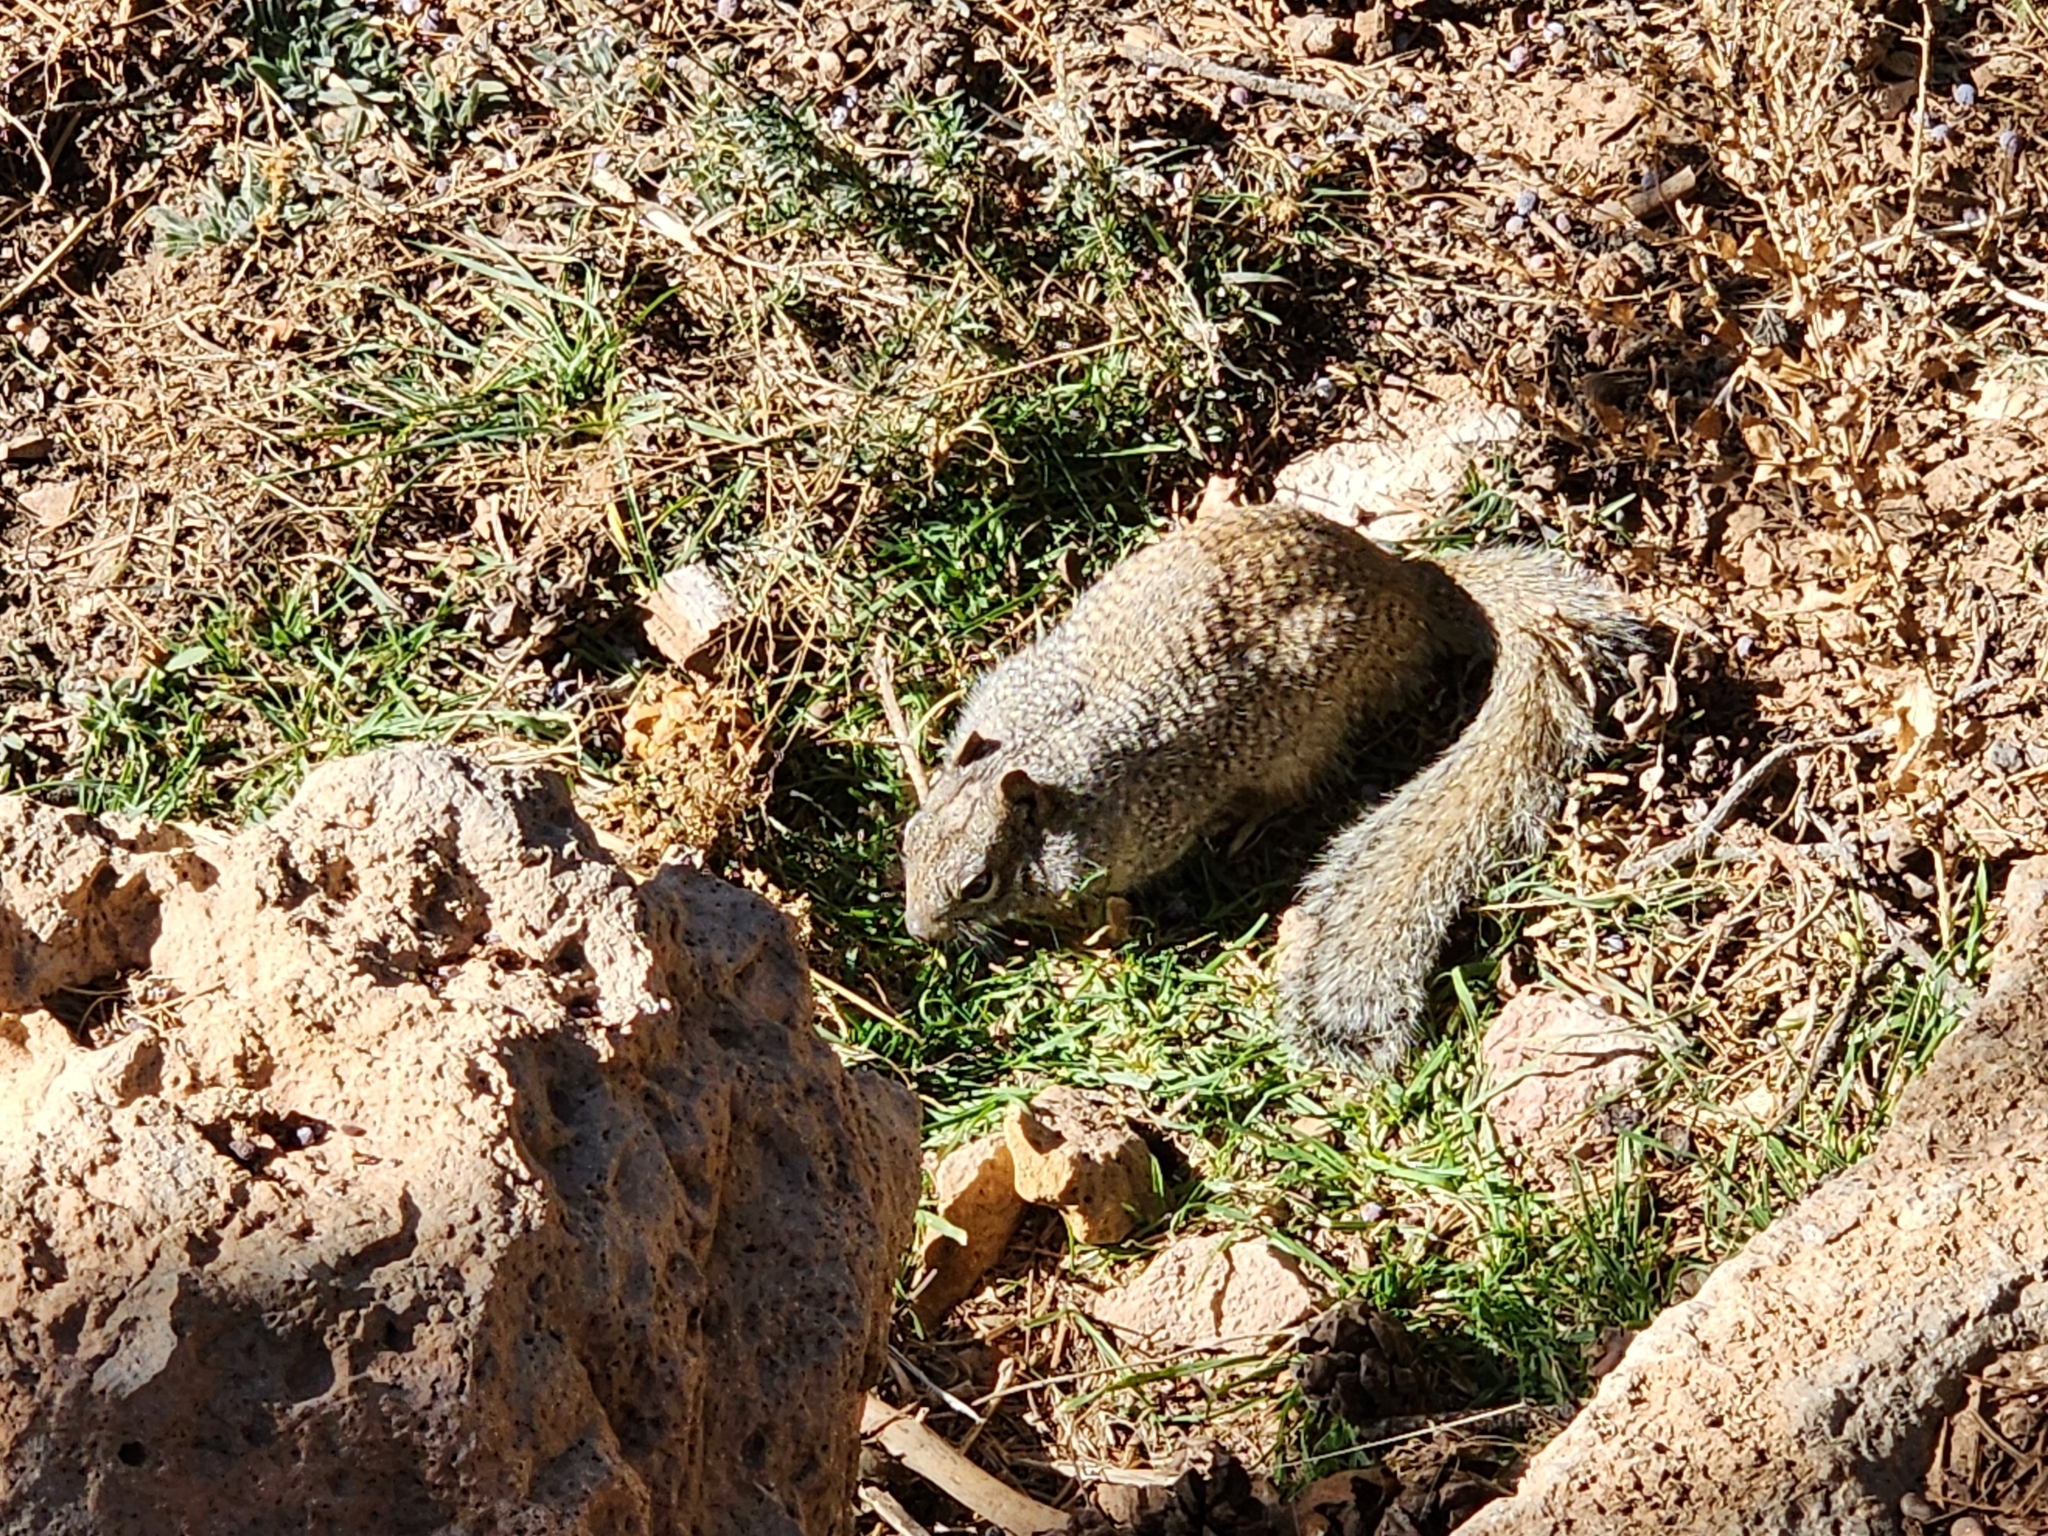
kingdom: Animalia
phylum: Chordata
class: Mammalia
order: Rodentia
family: Sciuridae
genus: Otospermophilus
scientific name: Otospermophilus variegatus
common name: Rock squirrel
